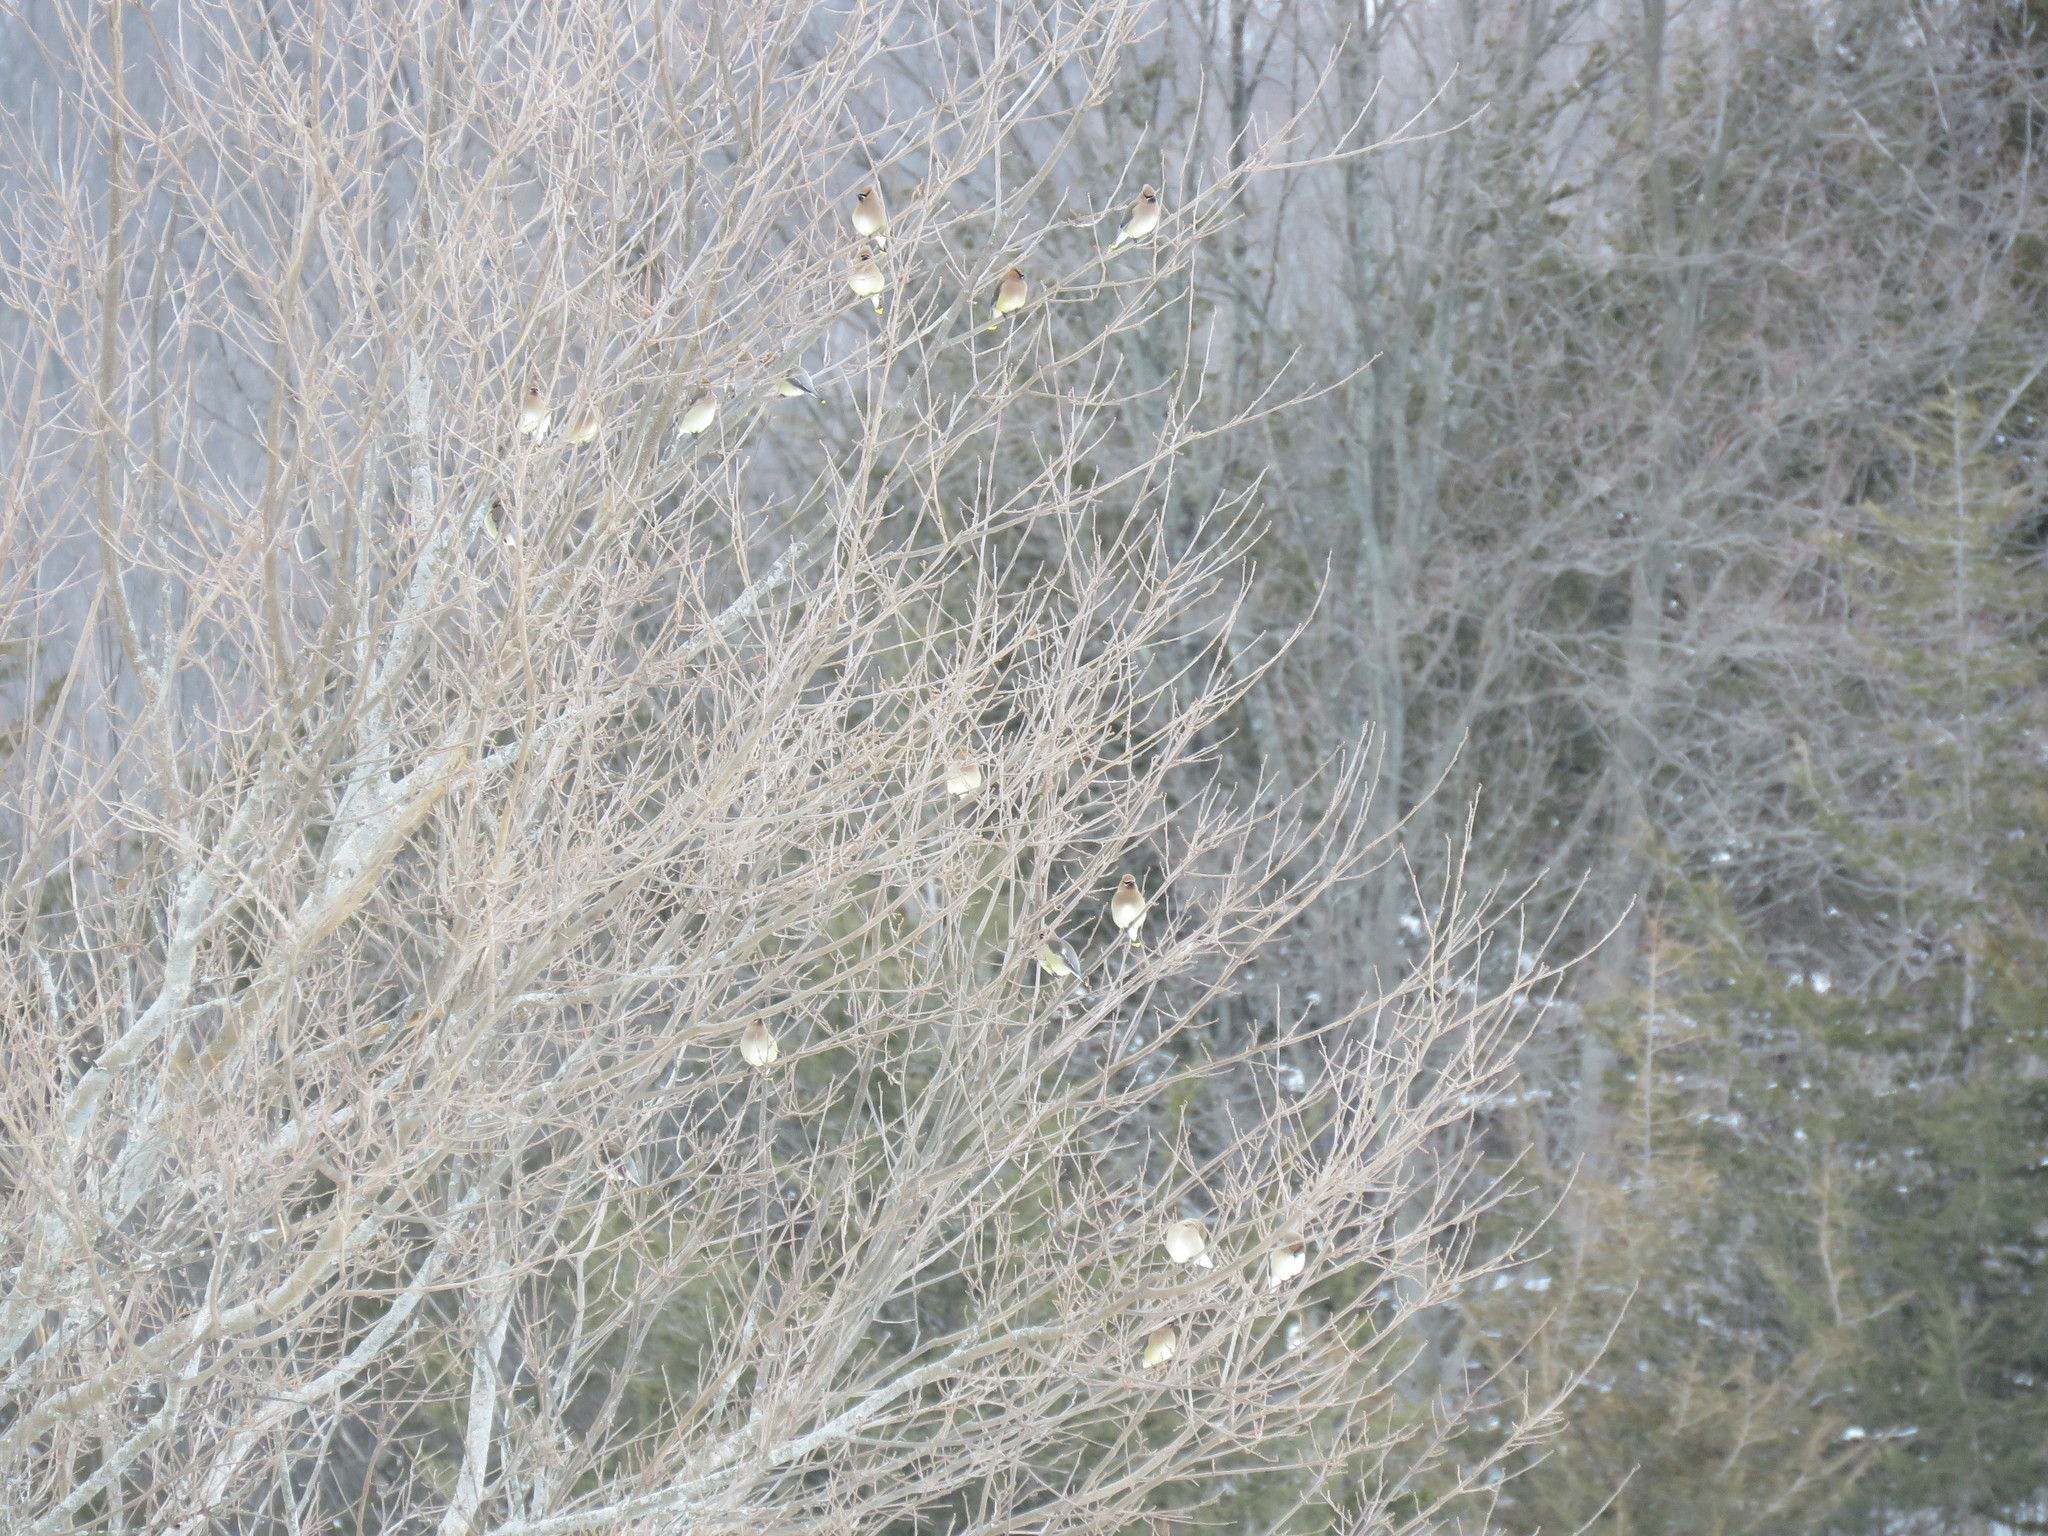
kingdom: Animalia
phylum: Chordata
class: Aves
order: Passeriformes
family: Bombycillidae
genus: Bombycilla
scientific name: Bombycilla cedrorum
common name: Cedar waxwing
